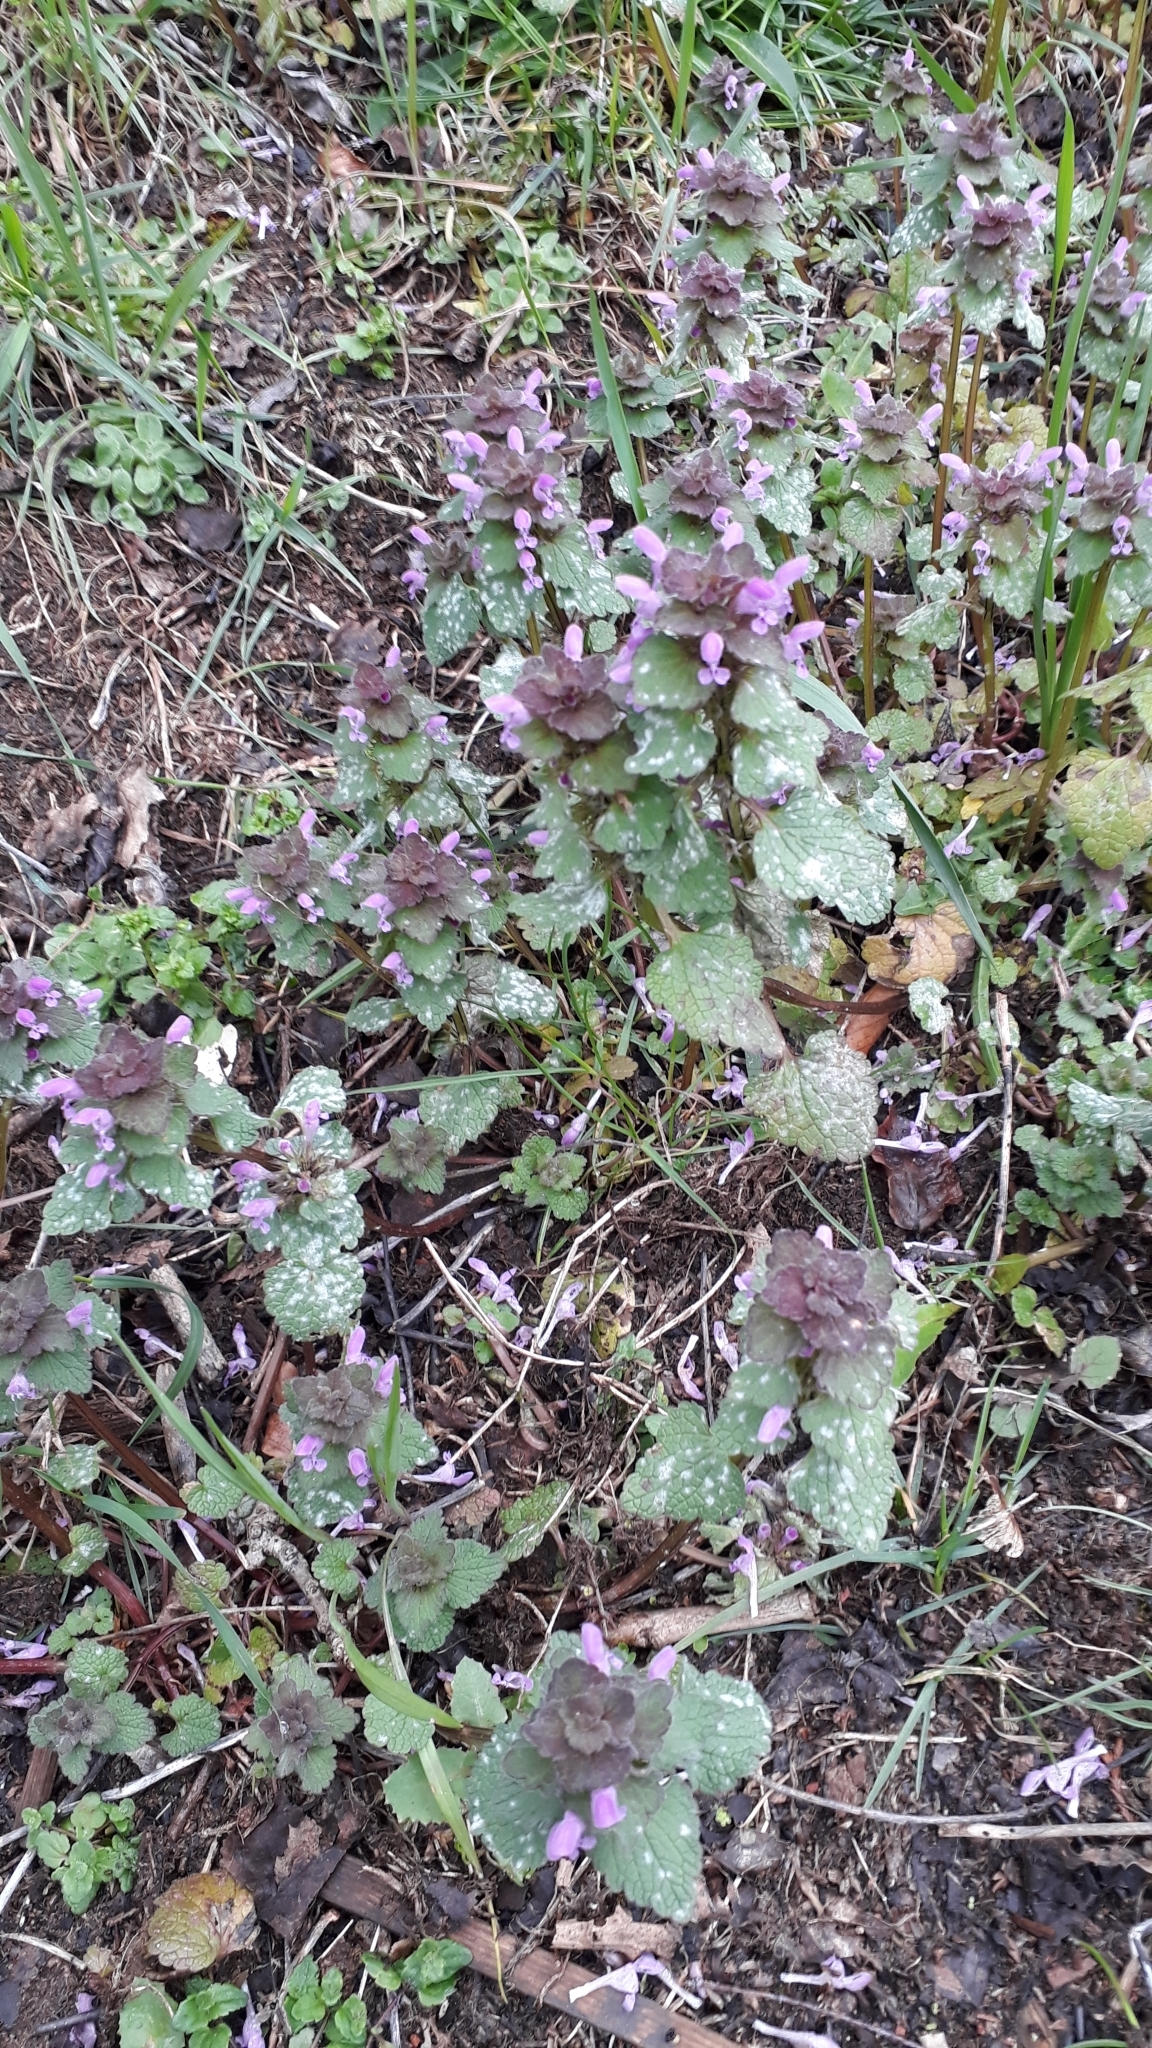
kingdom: Plantae
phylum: Tracheophyta
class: Magnoliopsida
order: Lamiales
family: Lamiaceae
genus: Lamium
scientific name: Lamium purpureum
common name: Red dead-nettle
